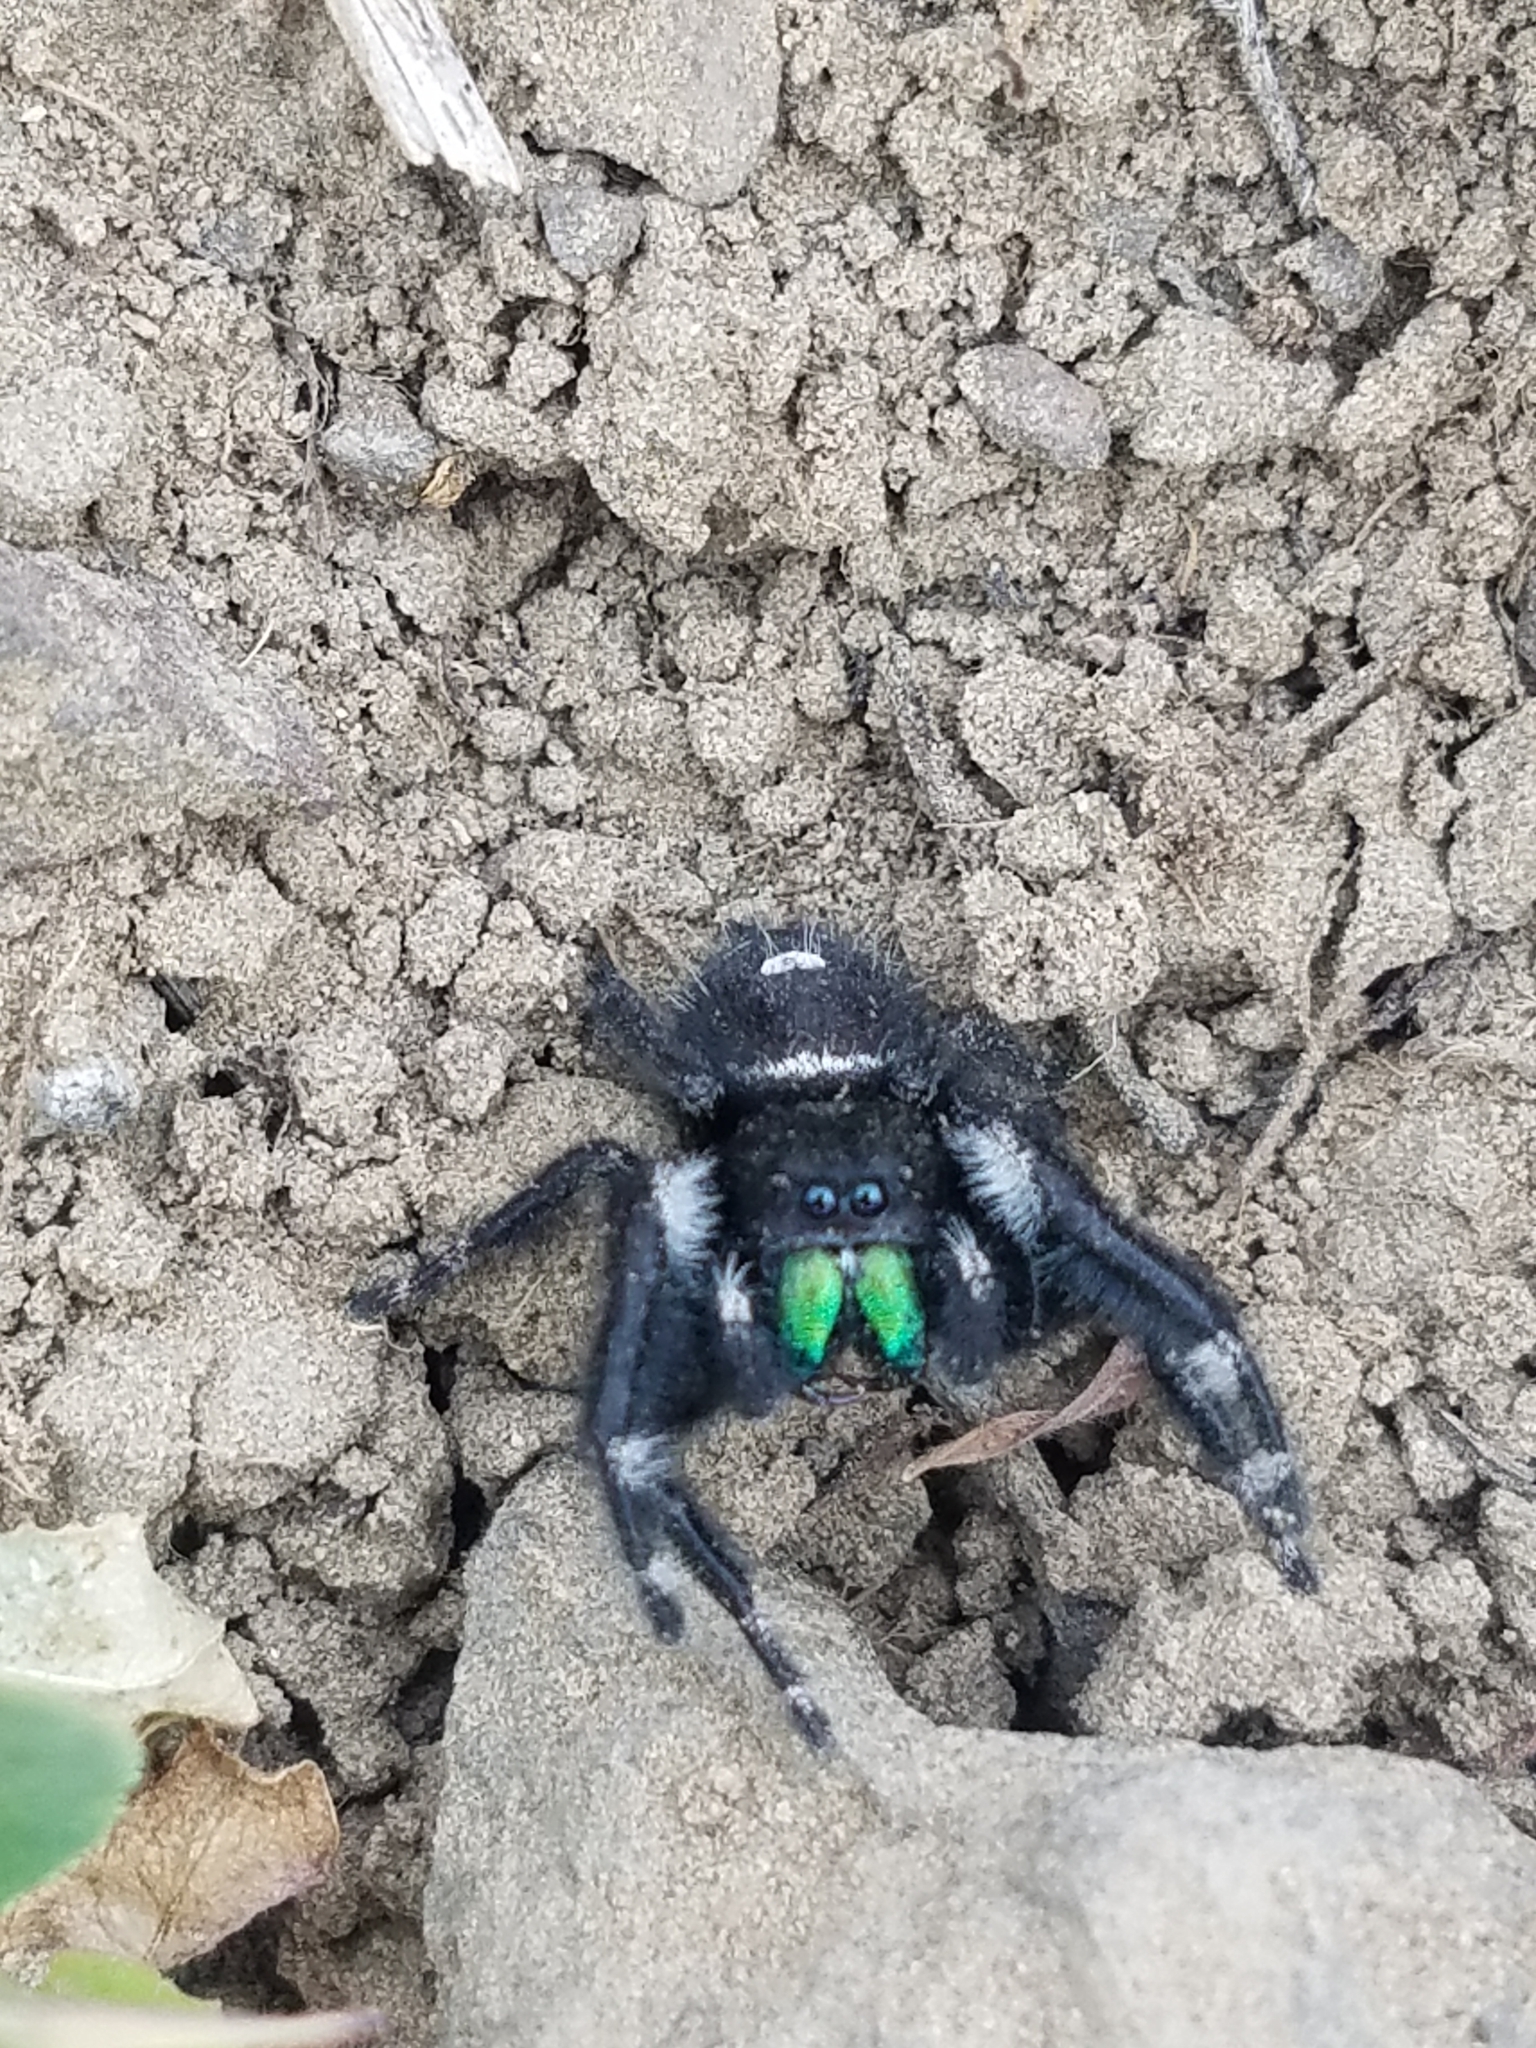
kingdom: Animalia
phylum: Arthropoda
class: Arachnida
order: Araneae
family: Salticidae
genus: Phidippus
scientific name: Phidippus audax
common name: Bold jumper
